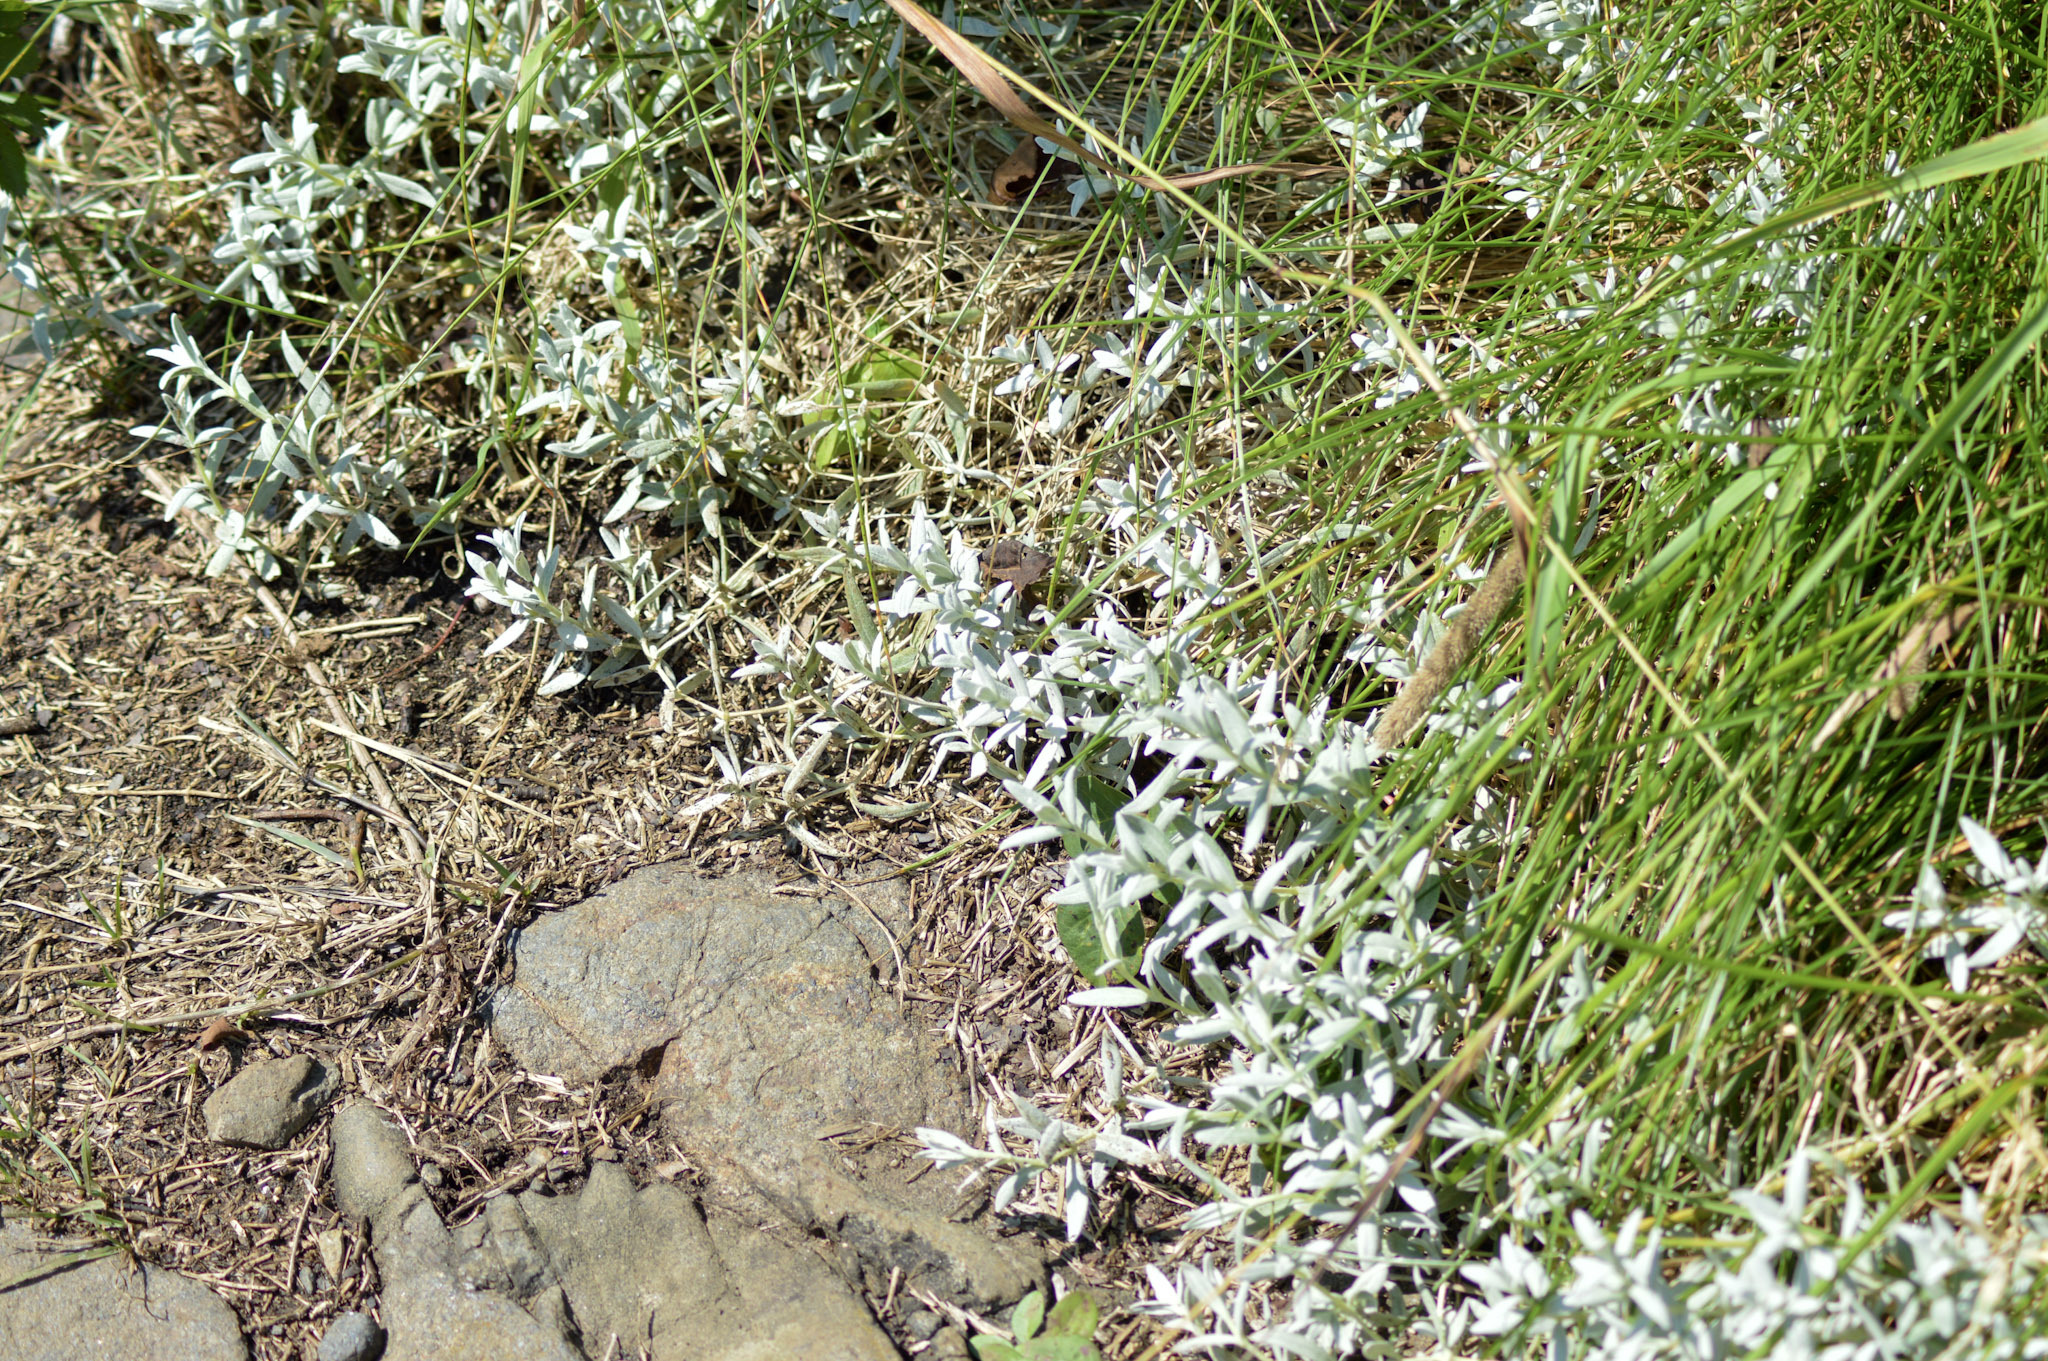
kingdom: Plantae
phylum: Tracheophyta
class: Magnoliopsida
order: Caryophyllales
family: Caryophyllaceae
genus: Cerastium
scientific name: Cerastium tomentosum
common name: Snow-in-summer
